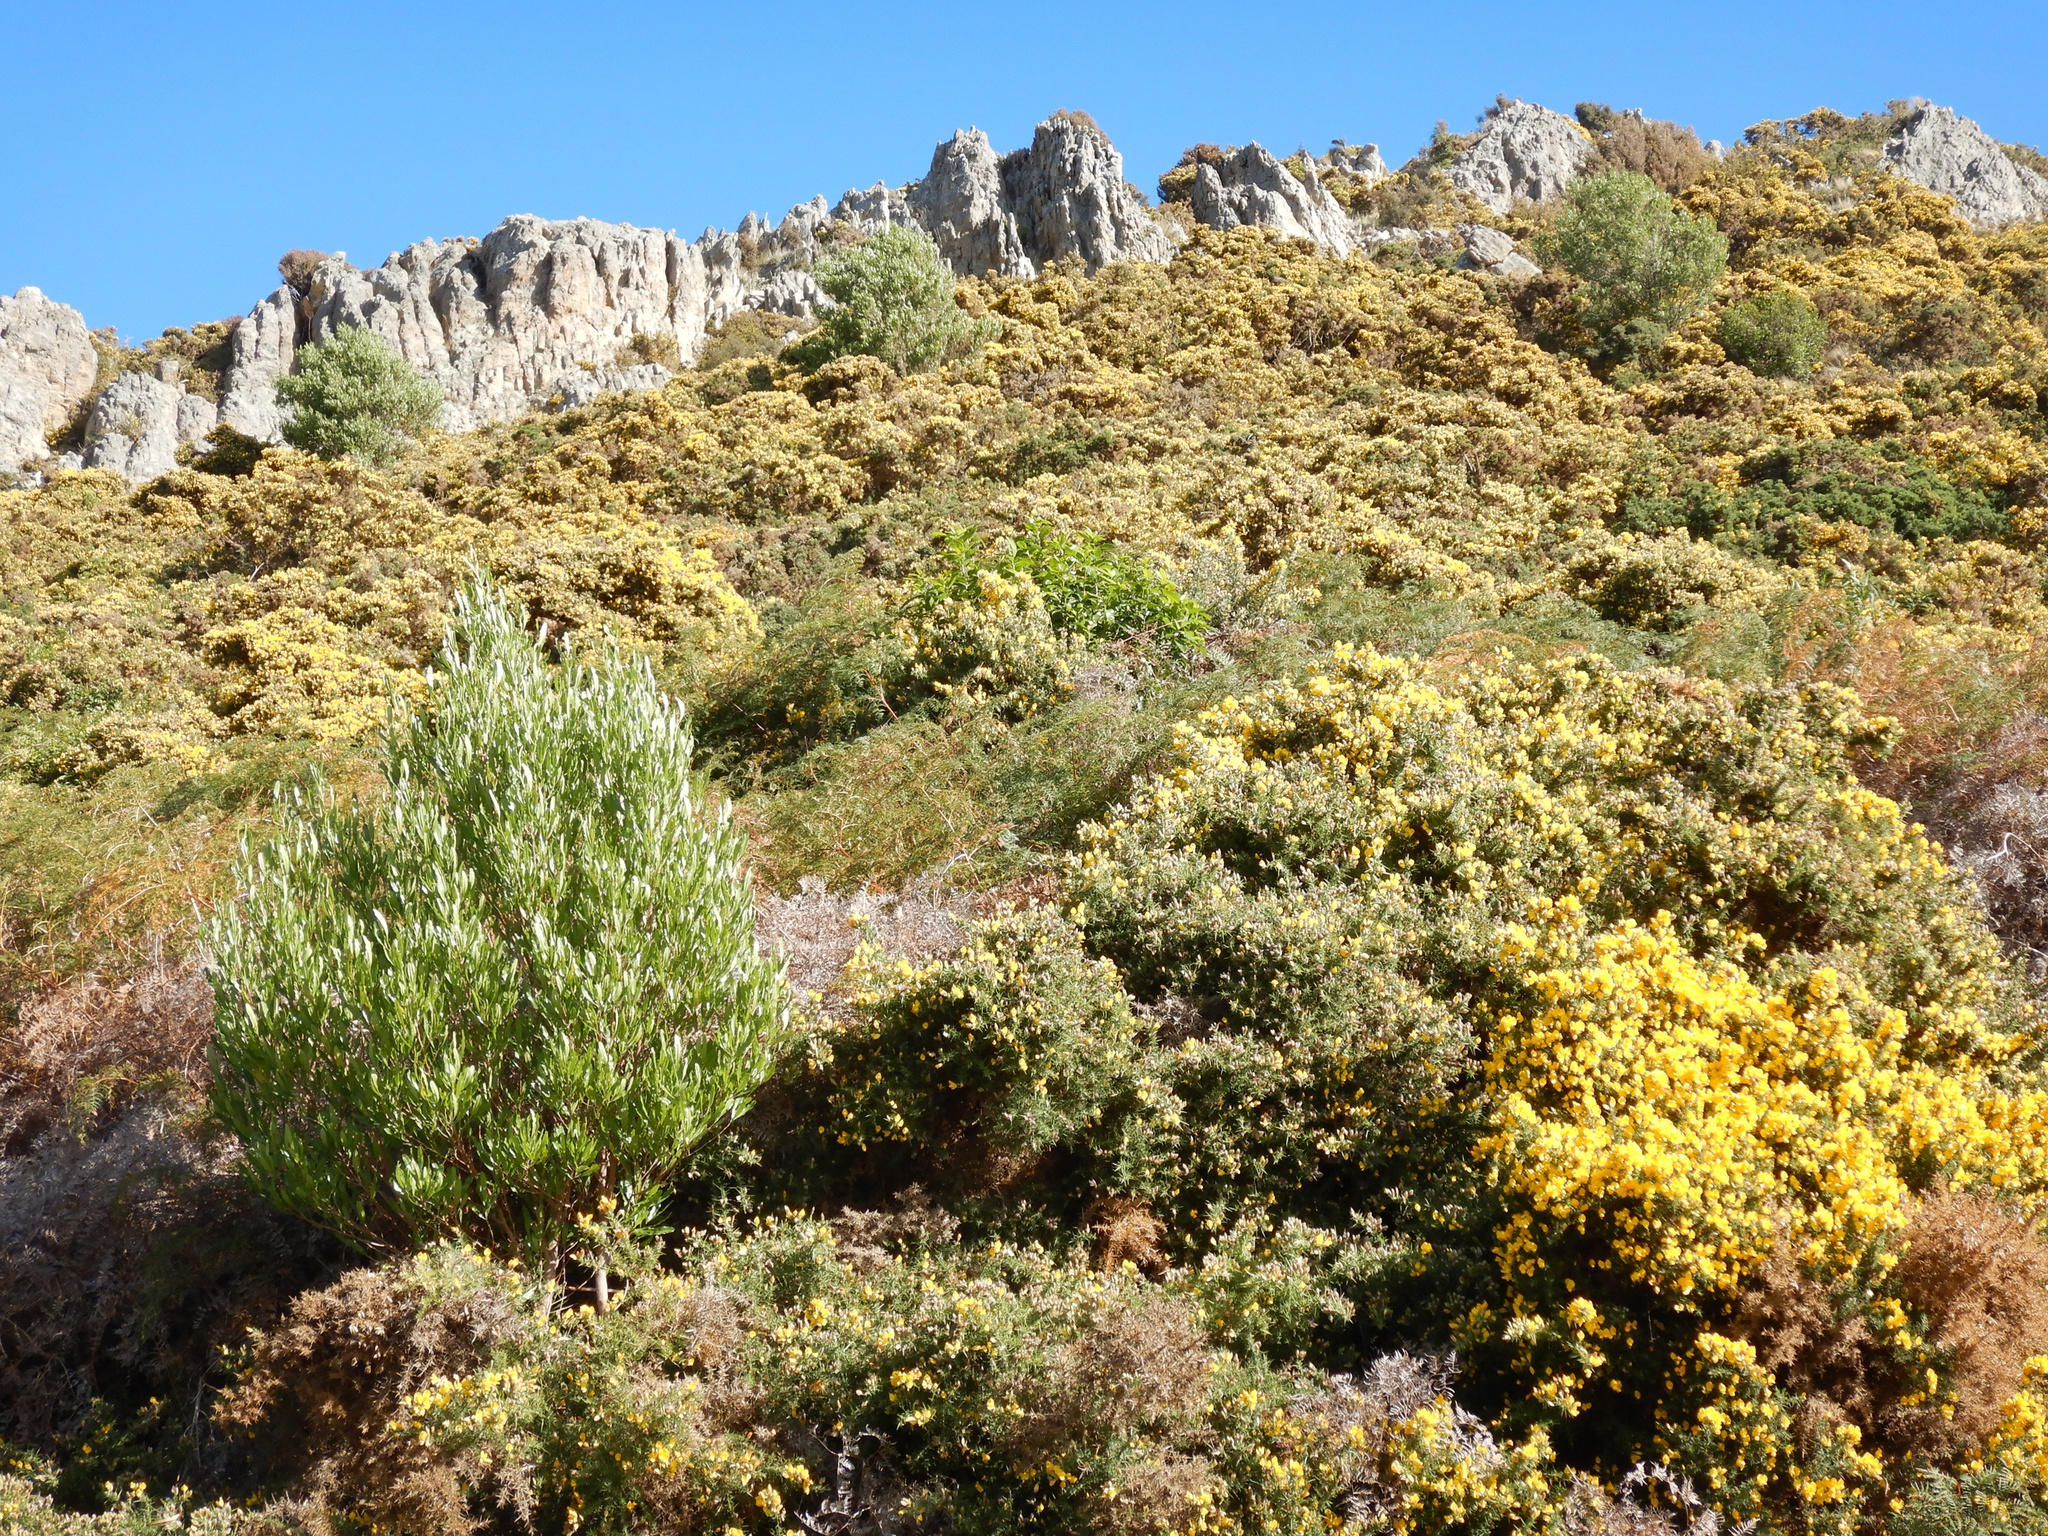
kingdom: Plantae
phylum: Tracheophyta
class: Magnoliopsida
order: Fabales
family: Fabaceae
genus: Ulex
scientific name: Ulex europaeus
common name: Common gorse
